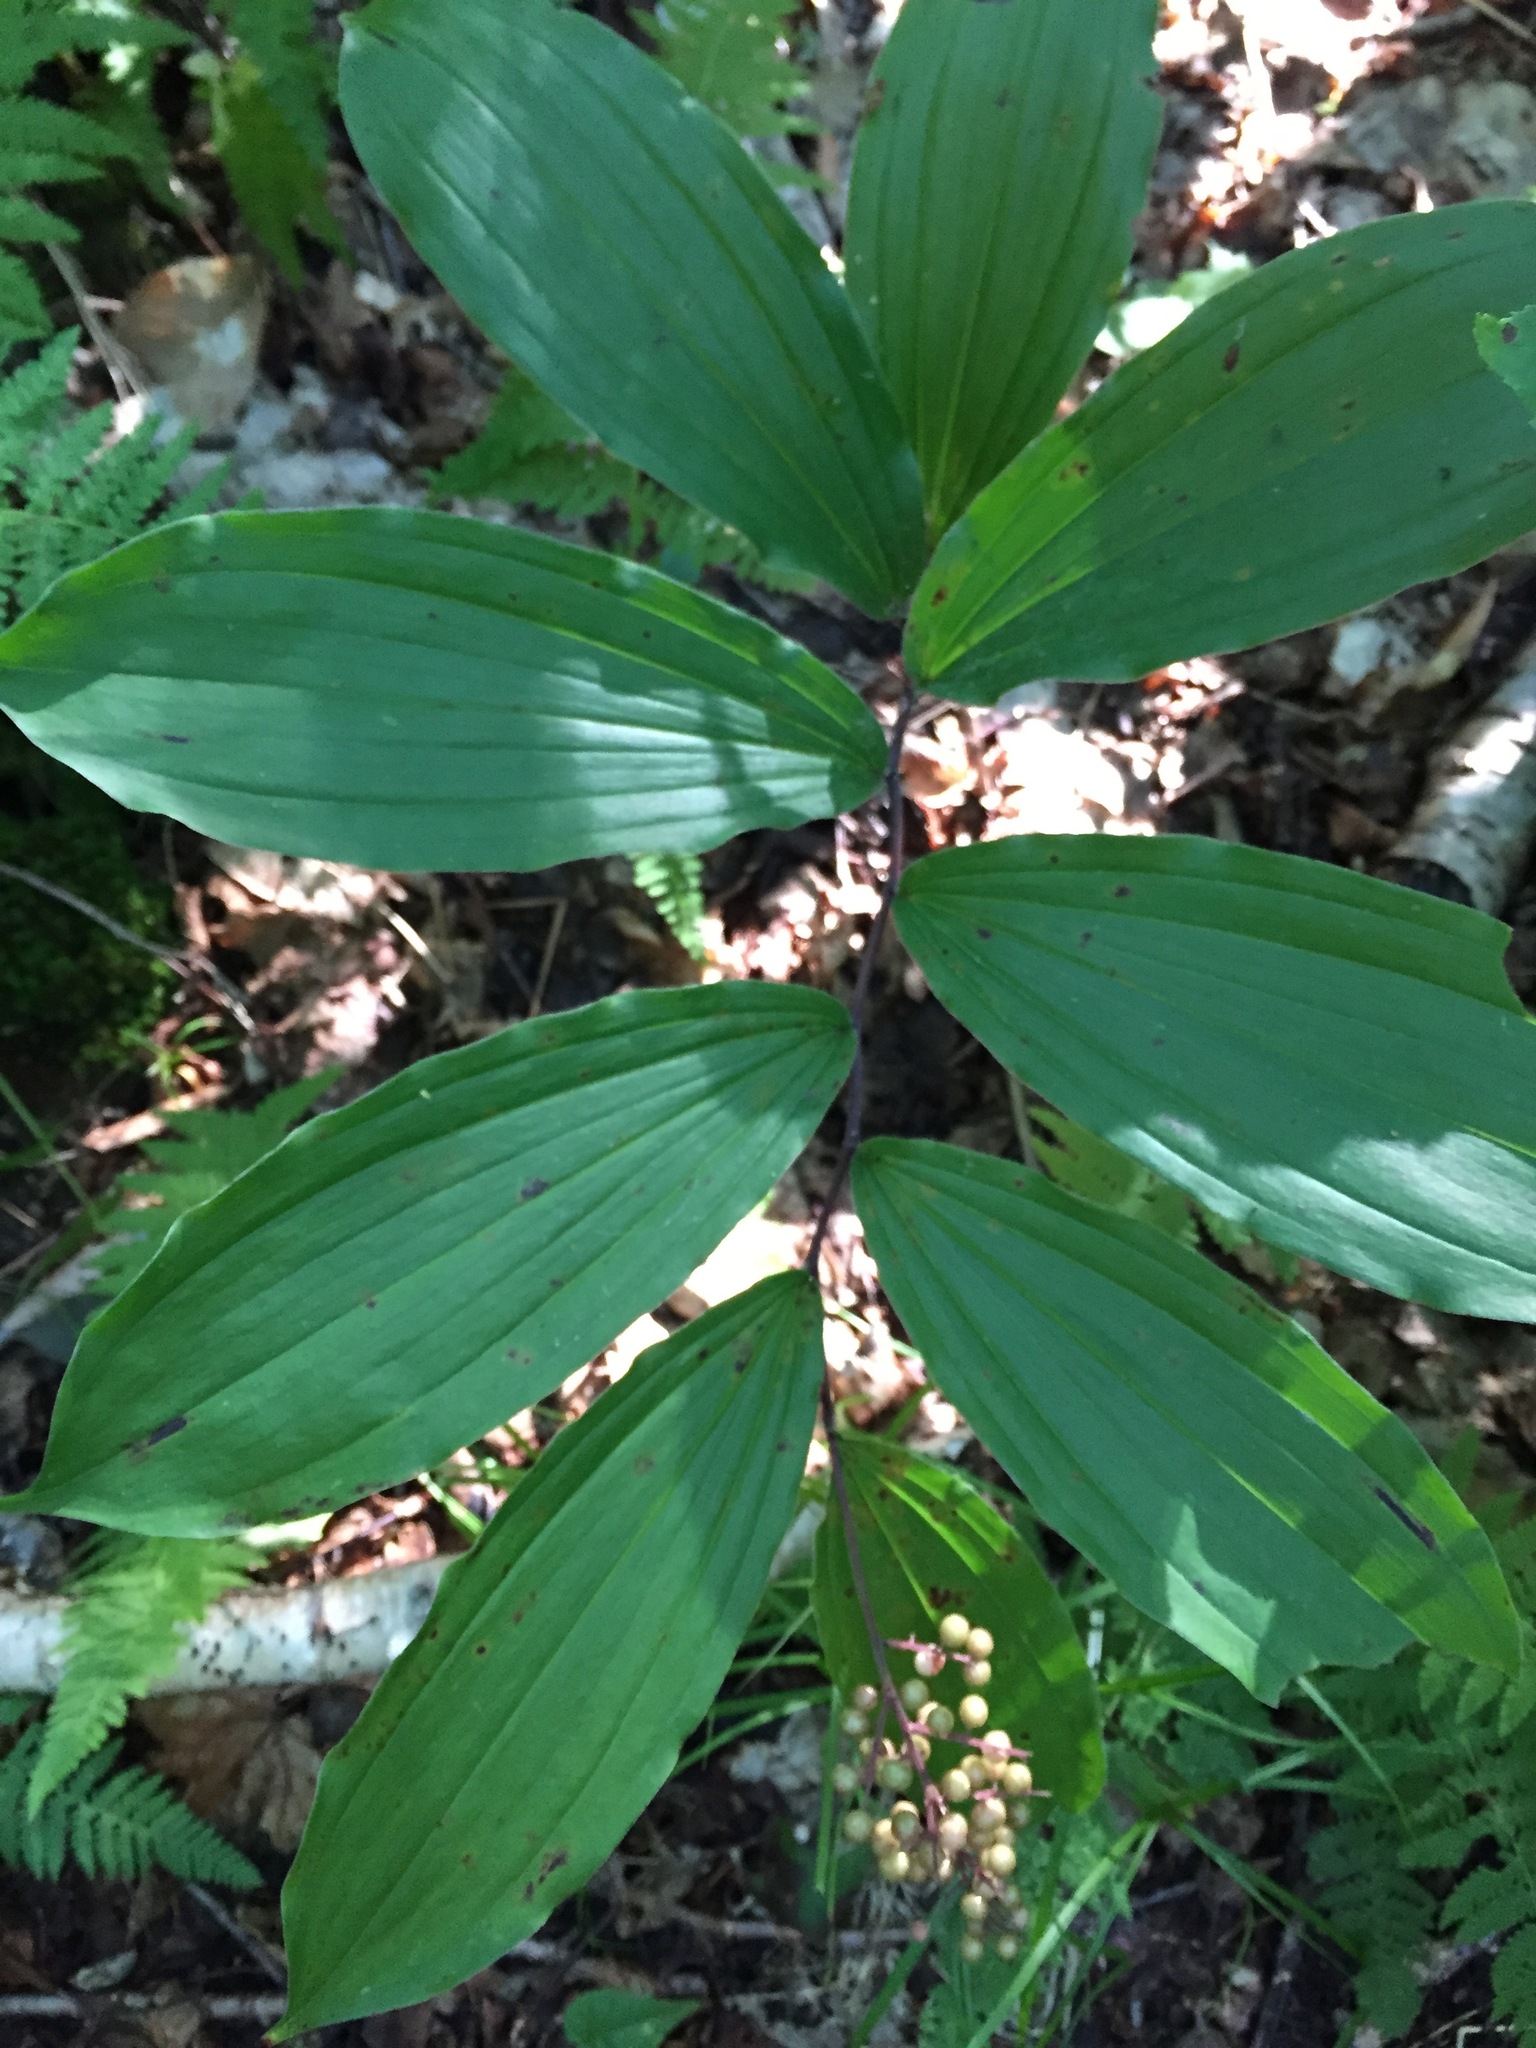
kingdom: Plantae
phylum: Tracheophyta
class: Liliopsida
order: Asparagales
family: Asparagaceae
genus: Maianthemum
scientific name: Maianthemum racemosum
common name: False spikenard
